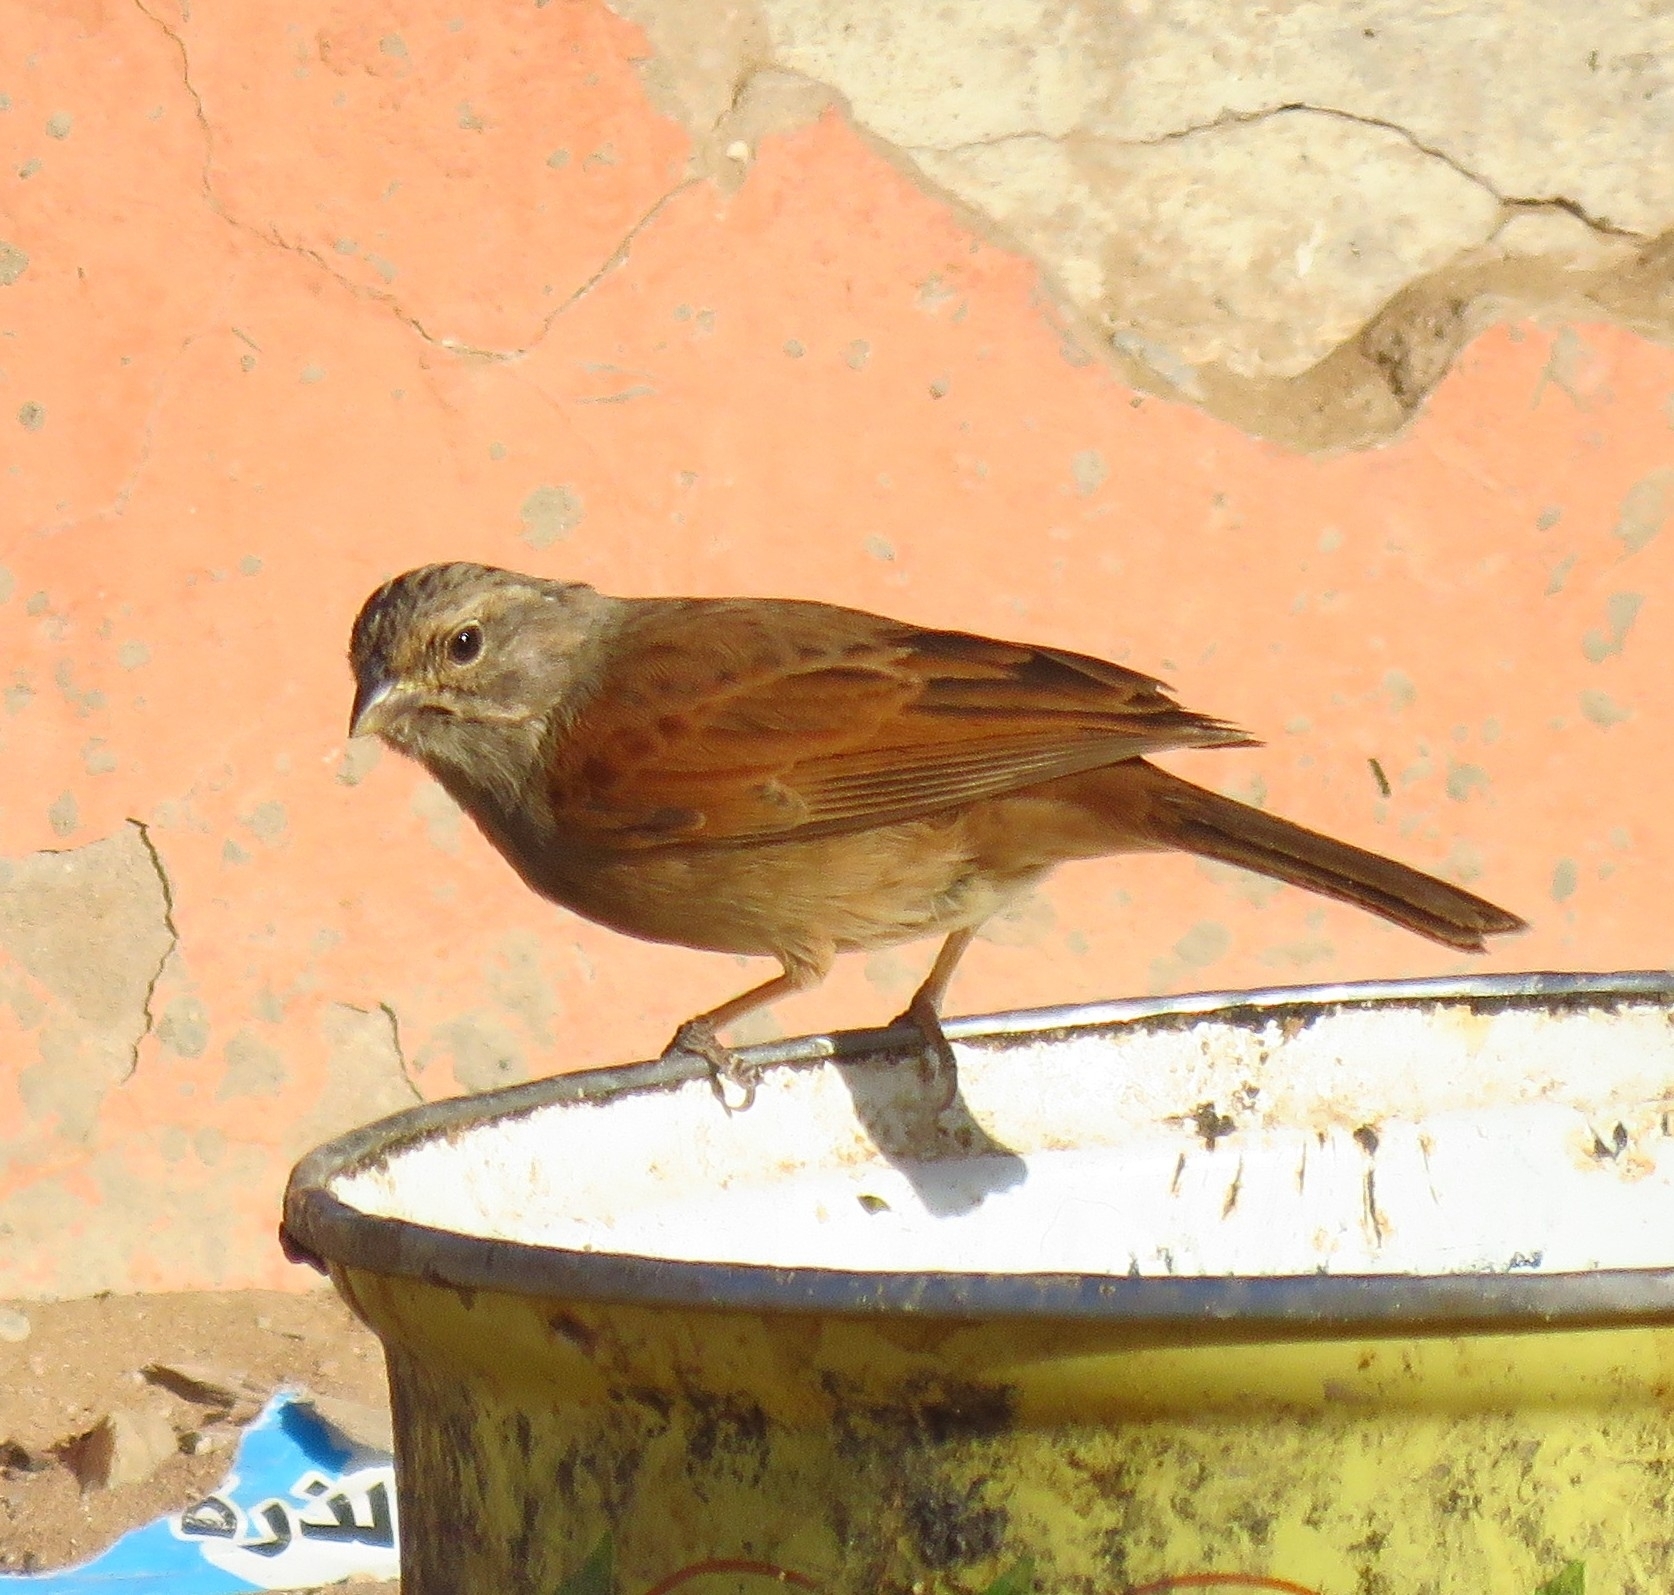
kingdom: Animalia
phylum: Chordata
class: Aves
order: Passeriformes
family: Emberizidae
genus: Emberiza
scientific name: Emberiza sahari
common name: House bunting
